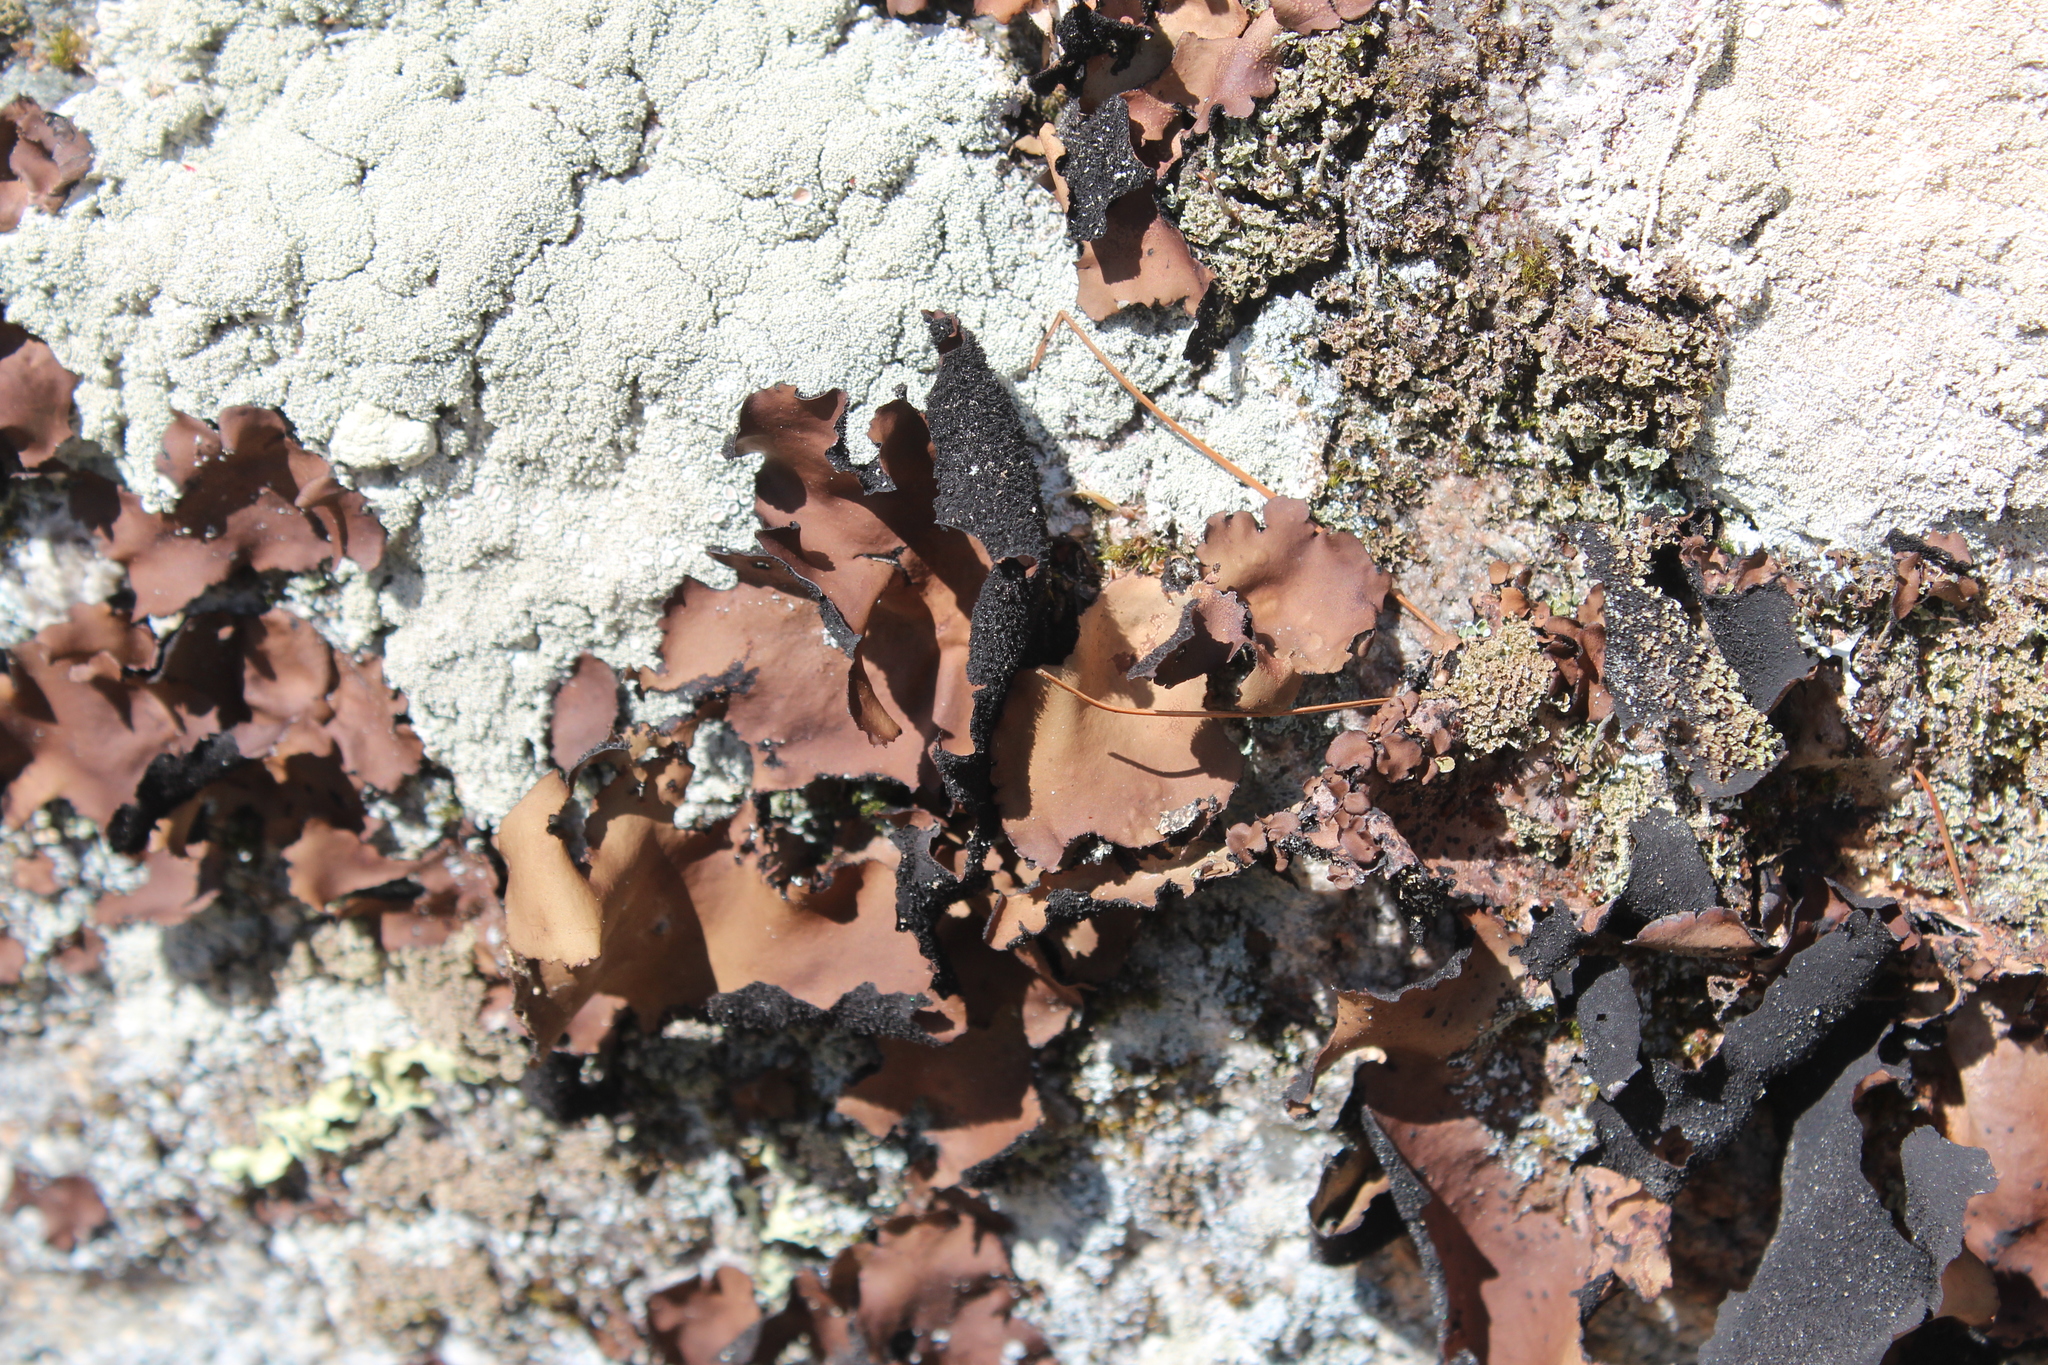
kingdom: Fungi
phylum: Ascomycota
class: Lecanoromycetes
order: Umbilicariales
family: Umbilicariaceae
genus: Umbilicaria
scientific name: Umbilicaria mammulata
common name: Smooth rock tripe
